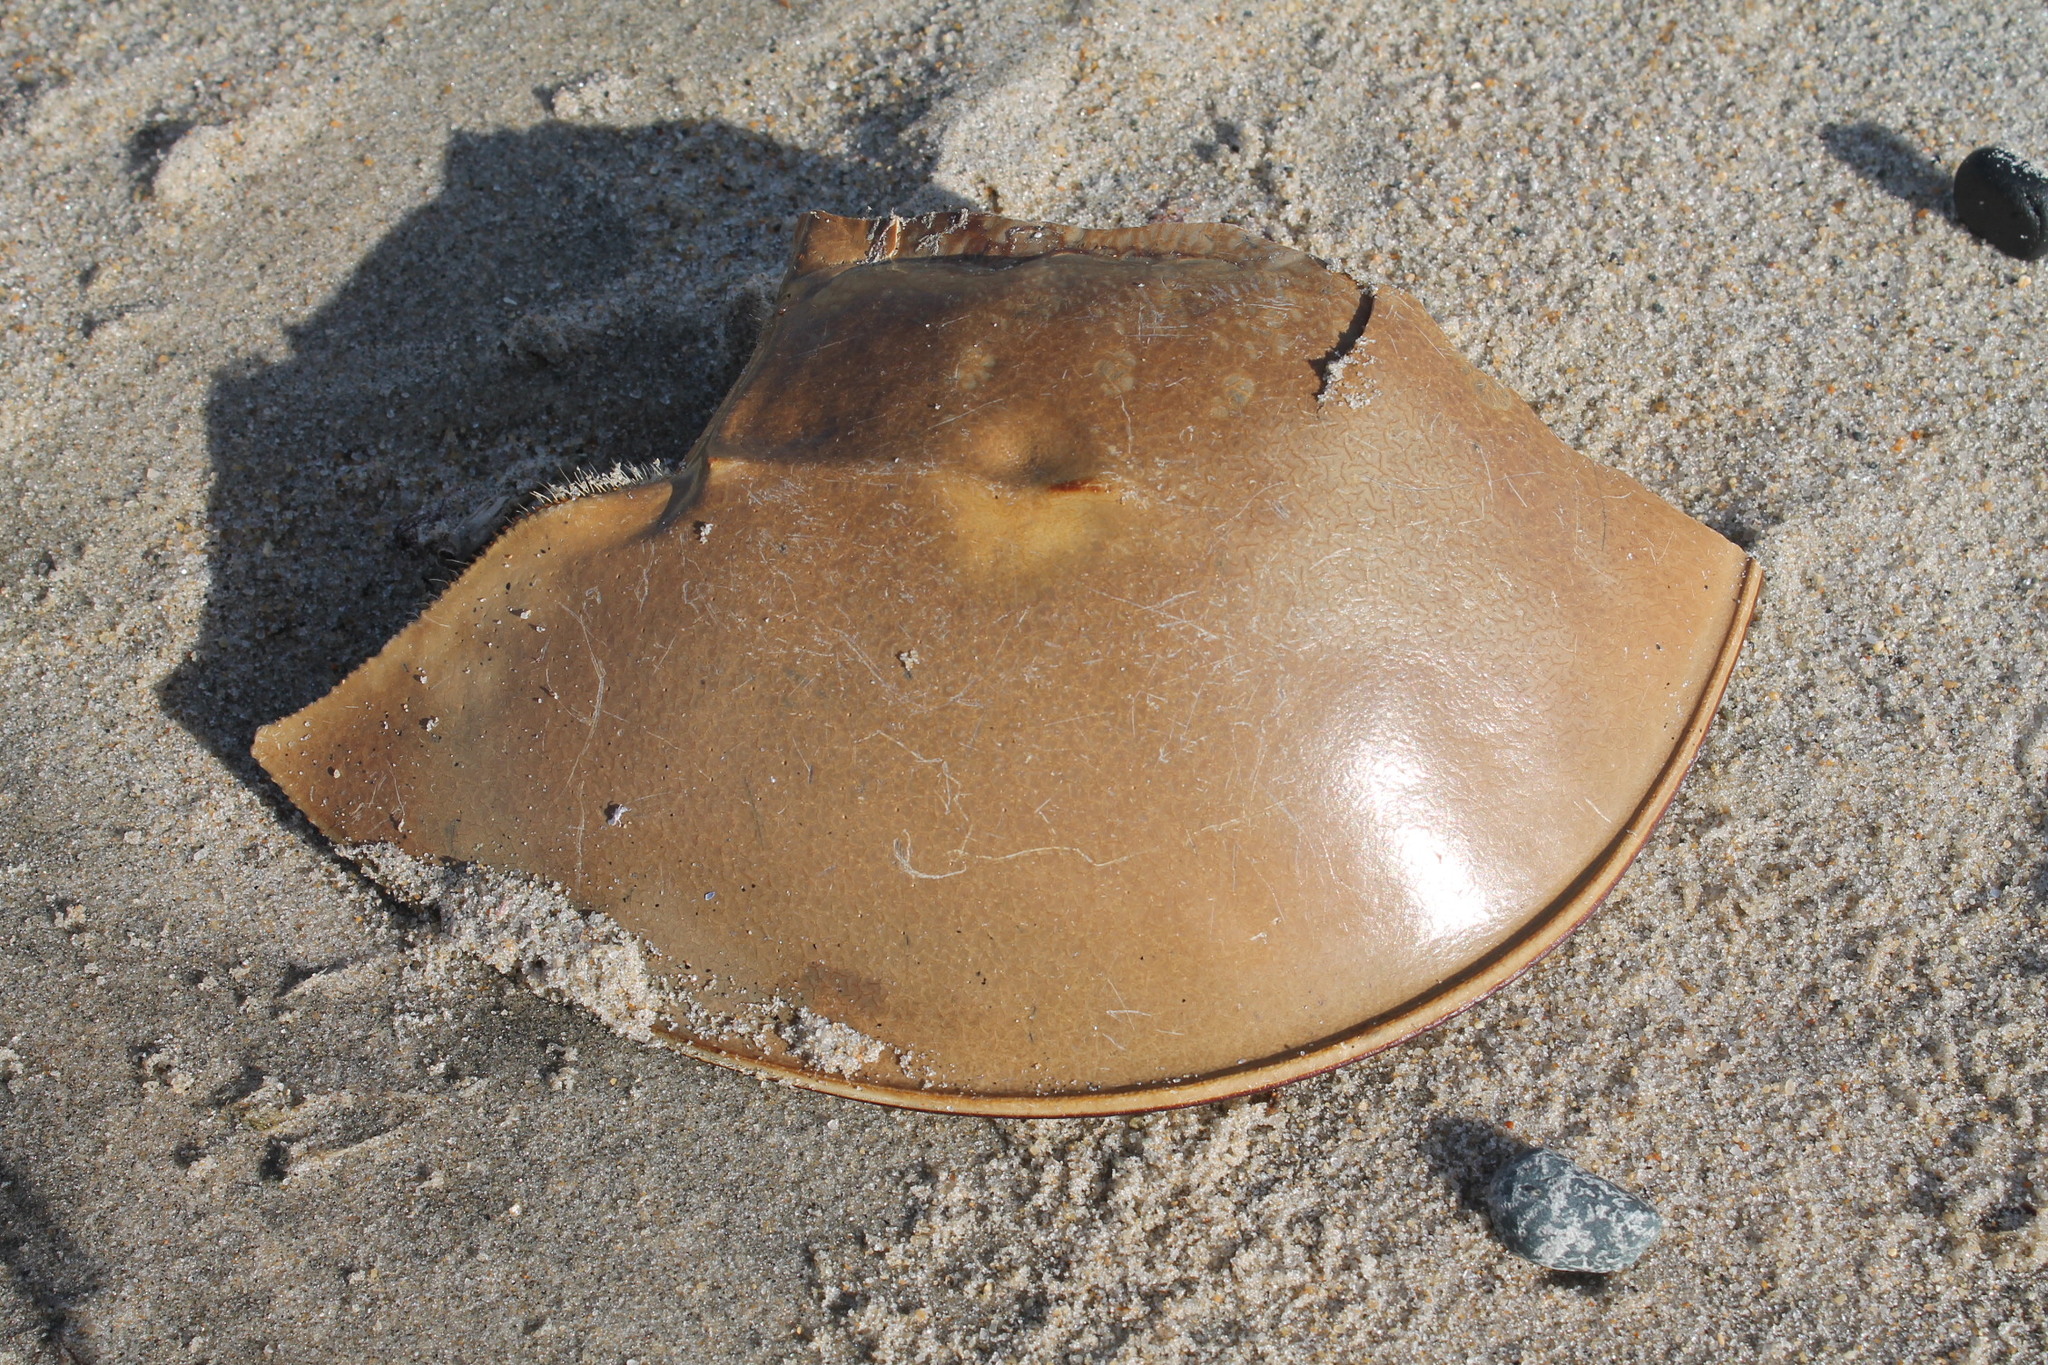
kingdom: Animalia
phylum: Arthropoda
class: Merostomata
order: Xiphosurida
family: Limulidae
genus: Limulus
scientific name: Limulus polyphemus
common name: Horseshoe crab
